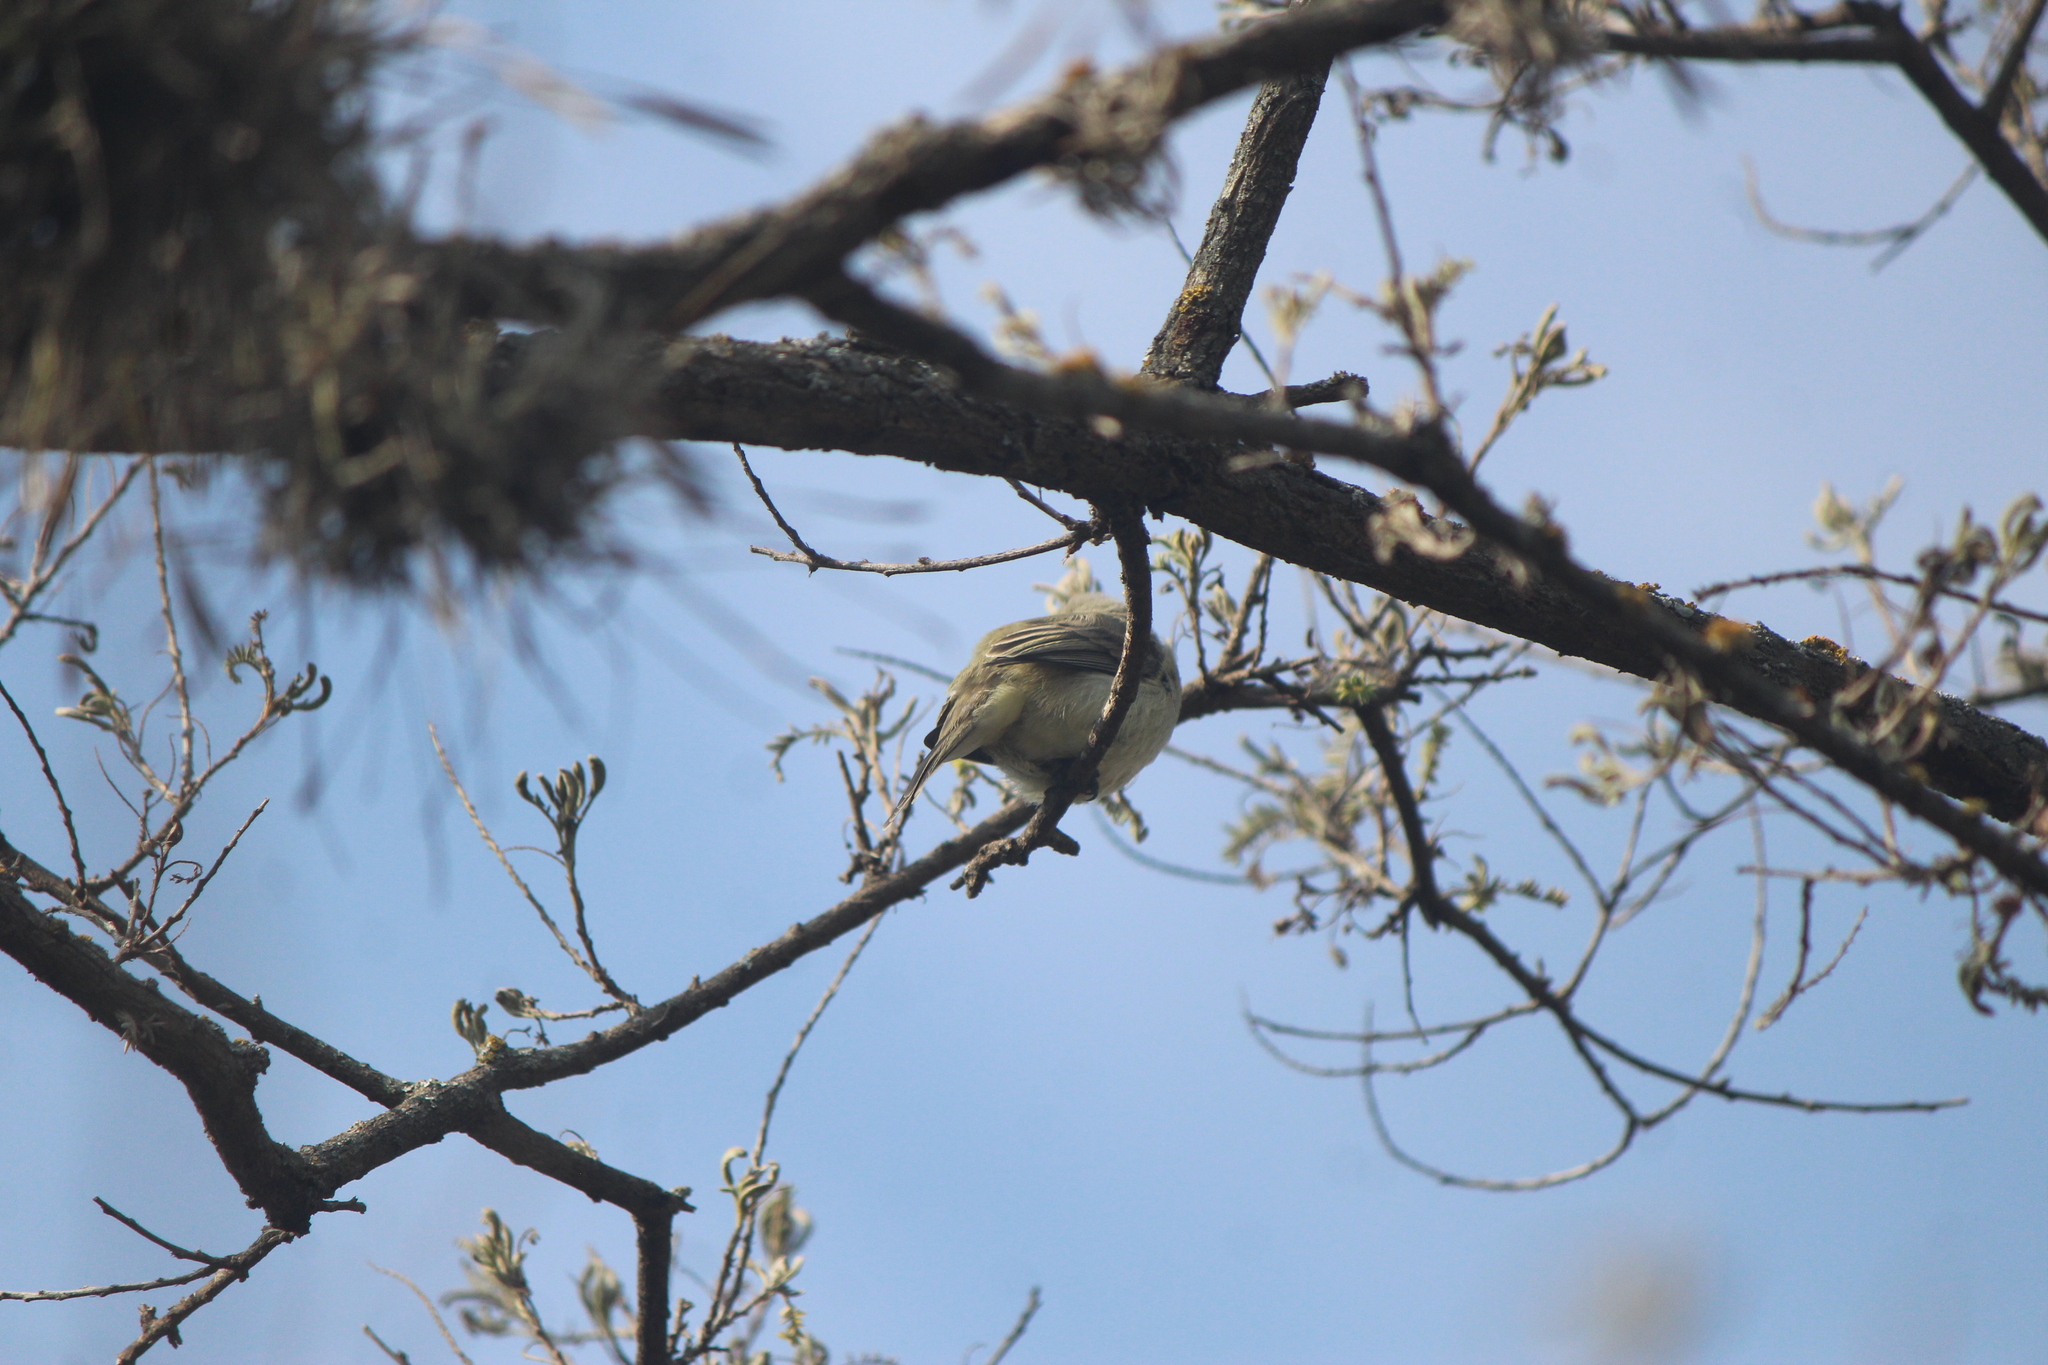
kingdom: Animalia
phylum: Chordata
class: Aves
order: Passeriformes
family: Tyrannidae
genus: Camptostoma
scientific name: Camptostoma imberbe
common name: Northern beardless-tyrannulet
